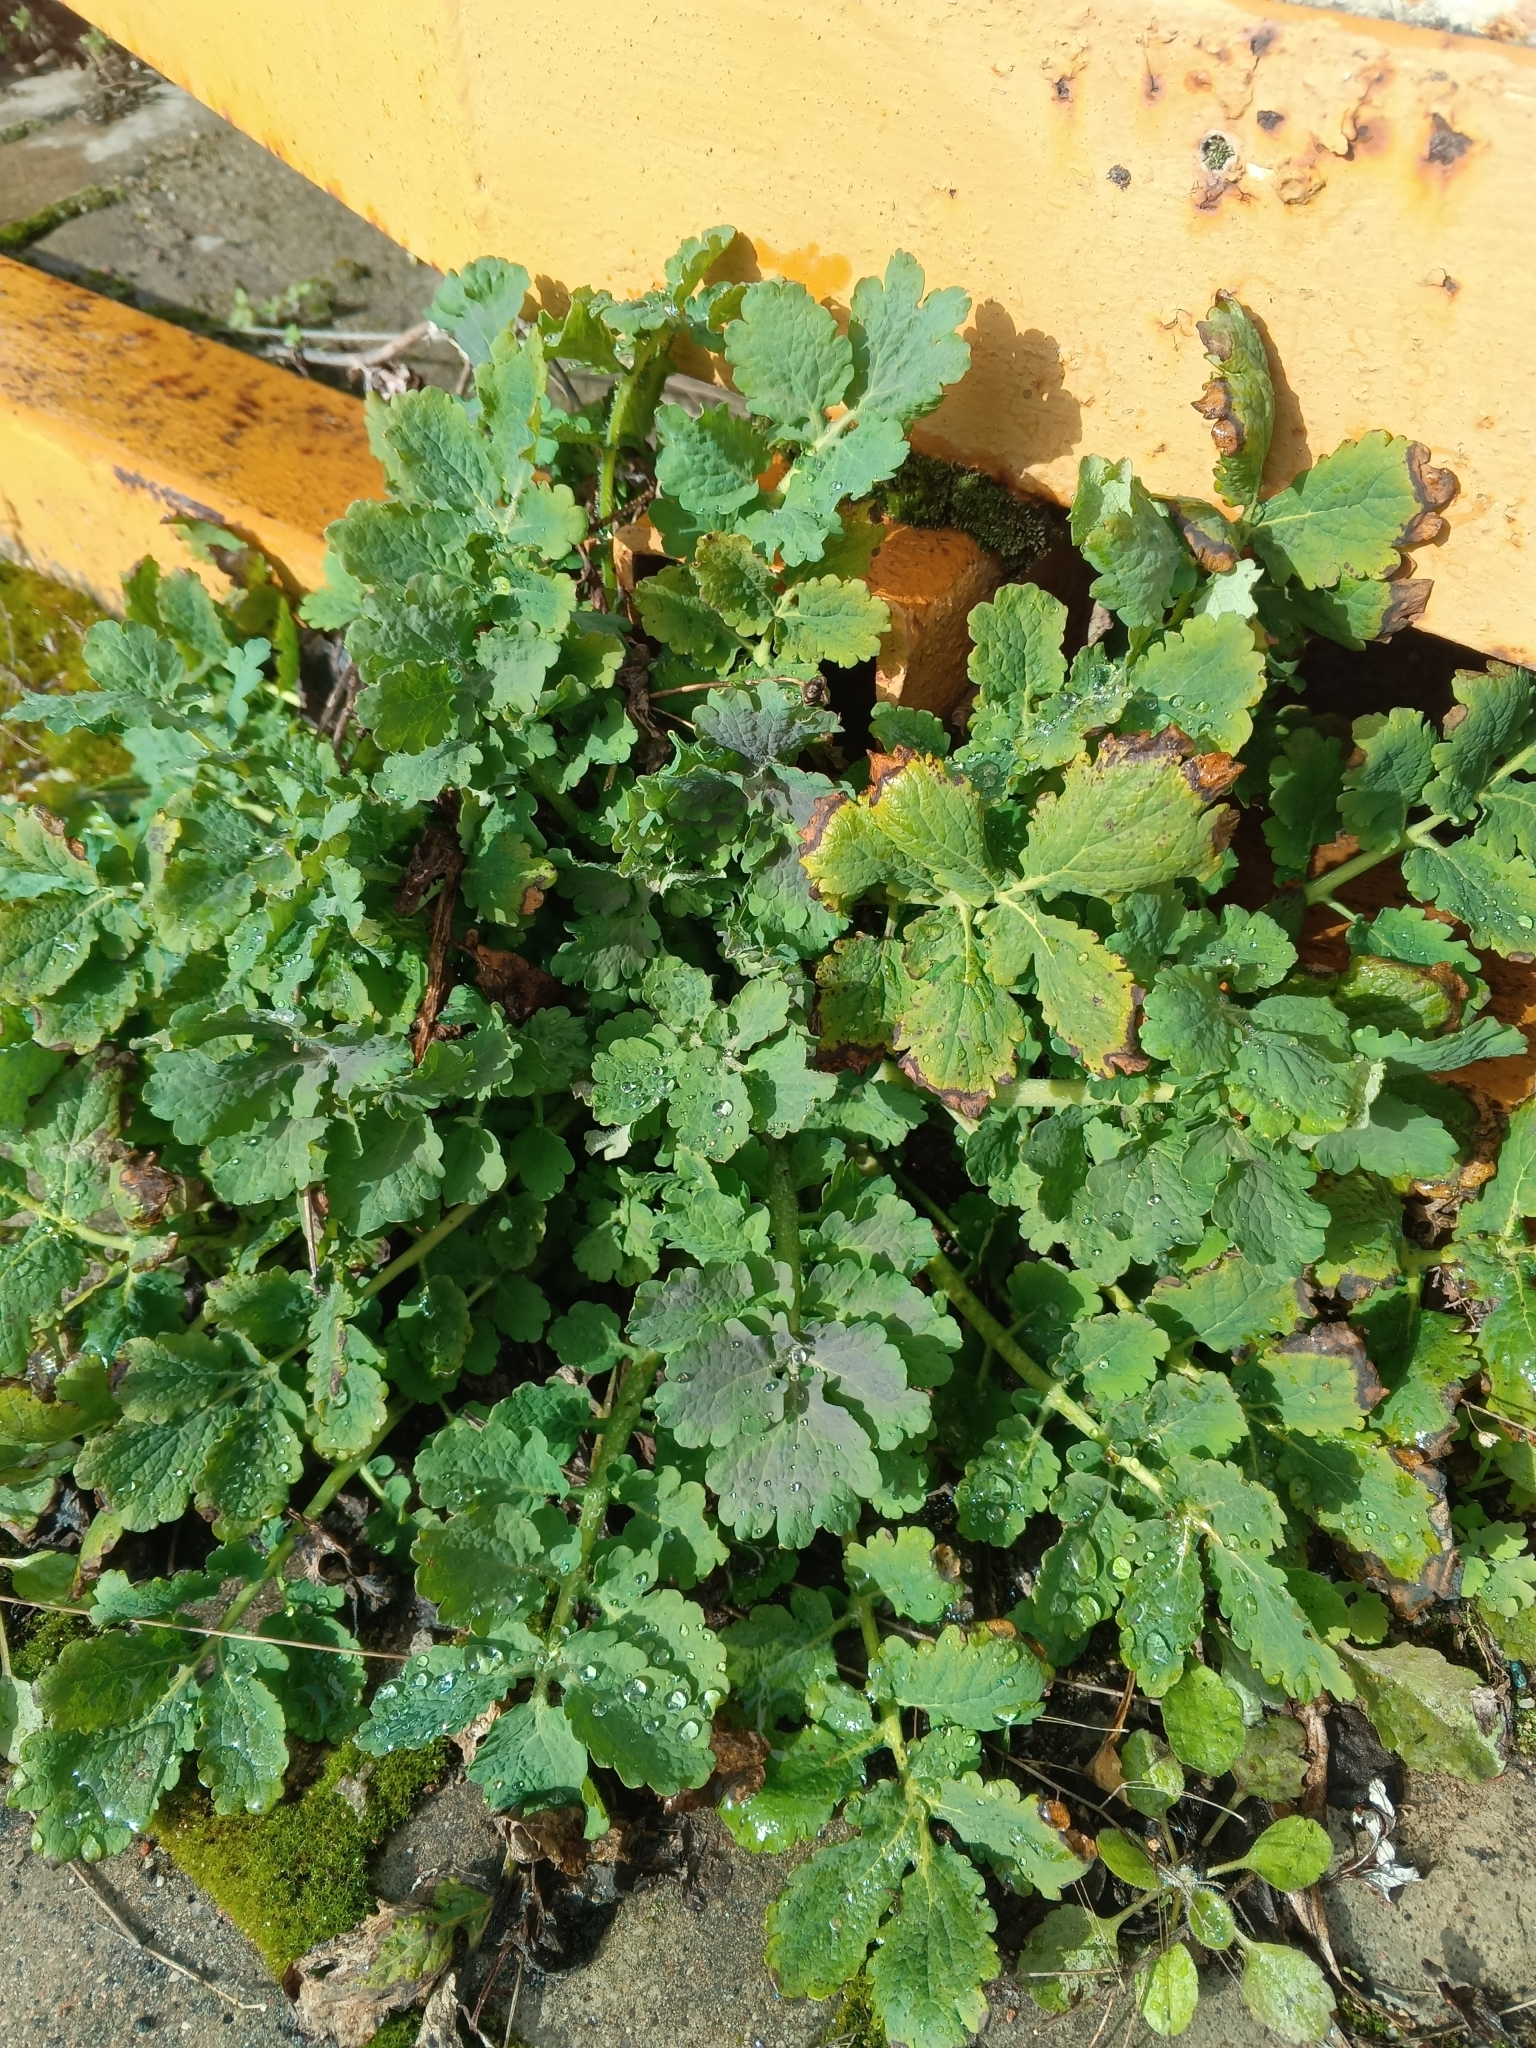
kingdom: Plantae
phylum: Tracheophyta
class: Magnoliopsida
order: Ranunculales
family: Papaveraceae
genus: Chelidonium
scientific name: Chelidonium majus
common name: Greater celandine
